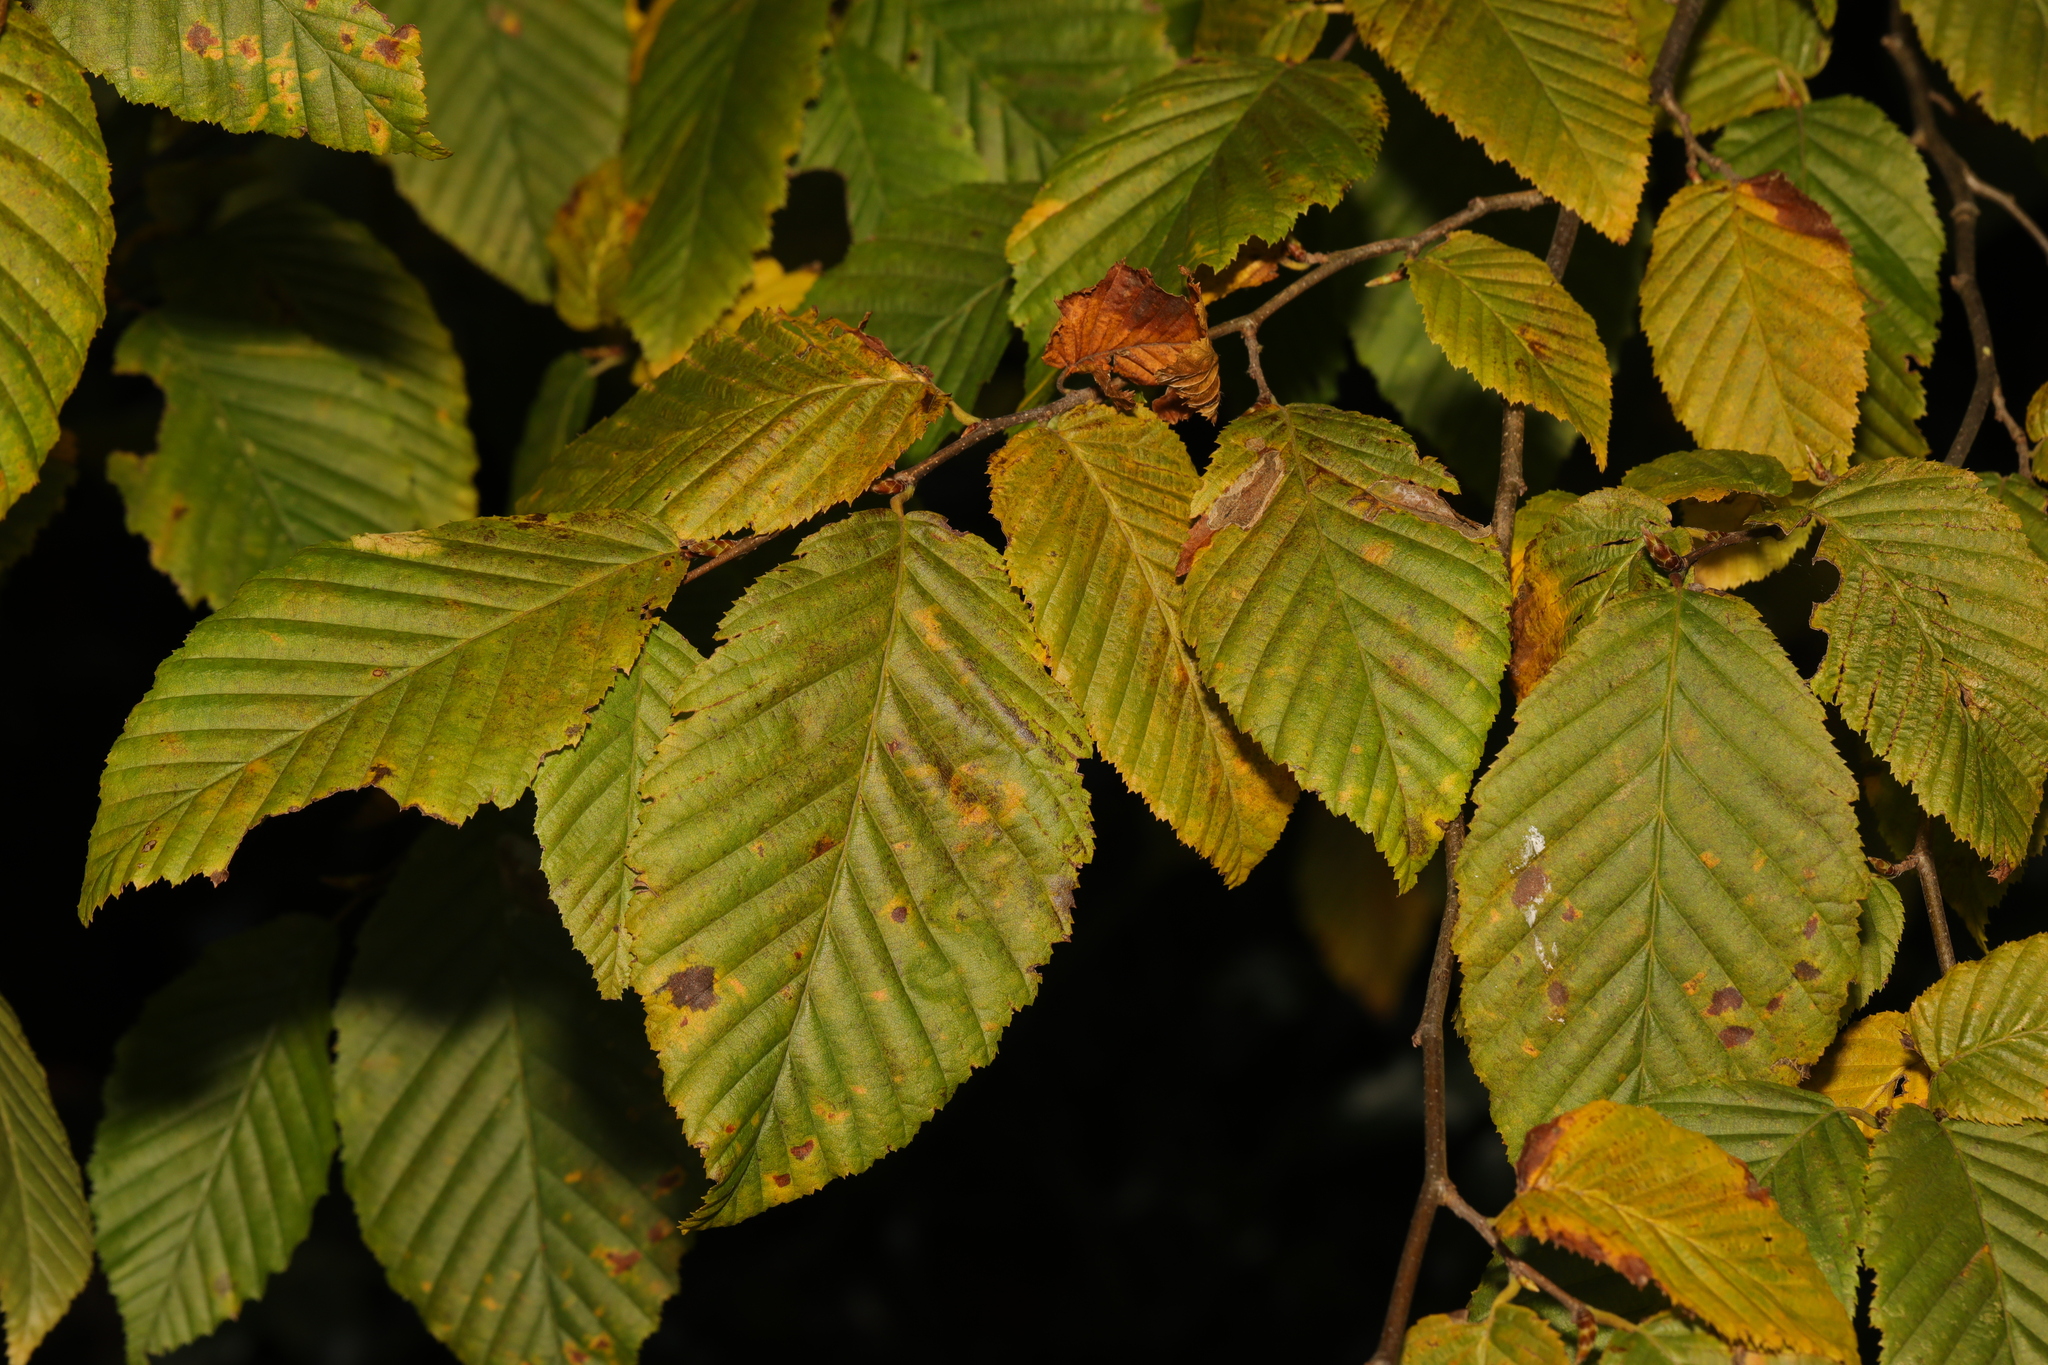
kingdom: Plantae
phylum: Tracheophyta
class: Magnoliopsida
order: Fagales
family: Betulaceae
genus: Carpinus
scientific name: Carpinus betulus
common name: Hornbeam
